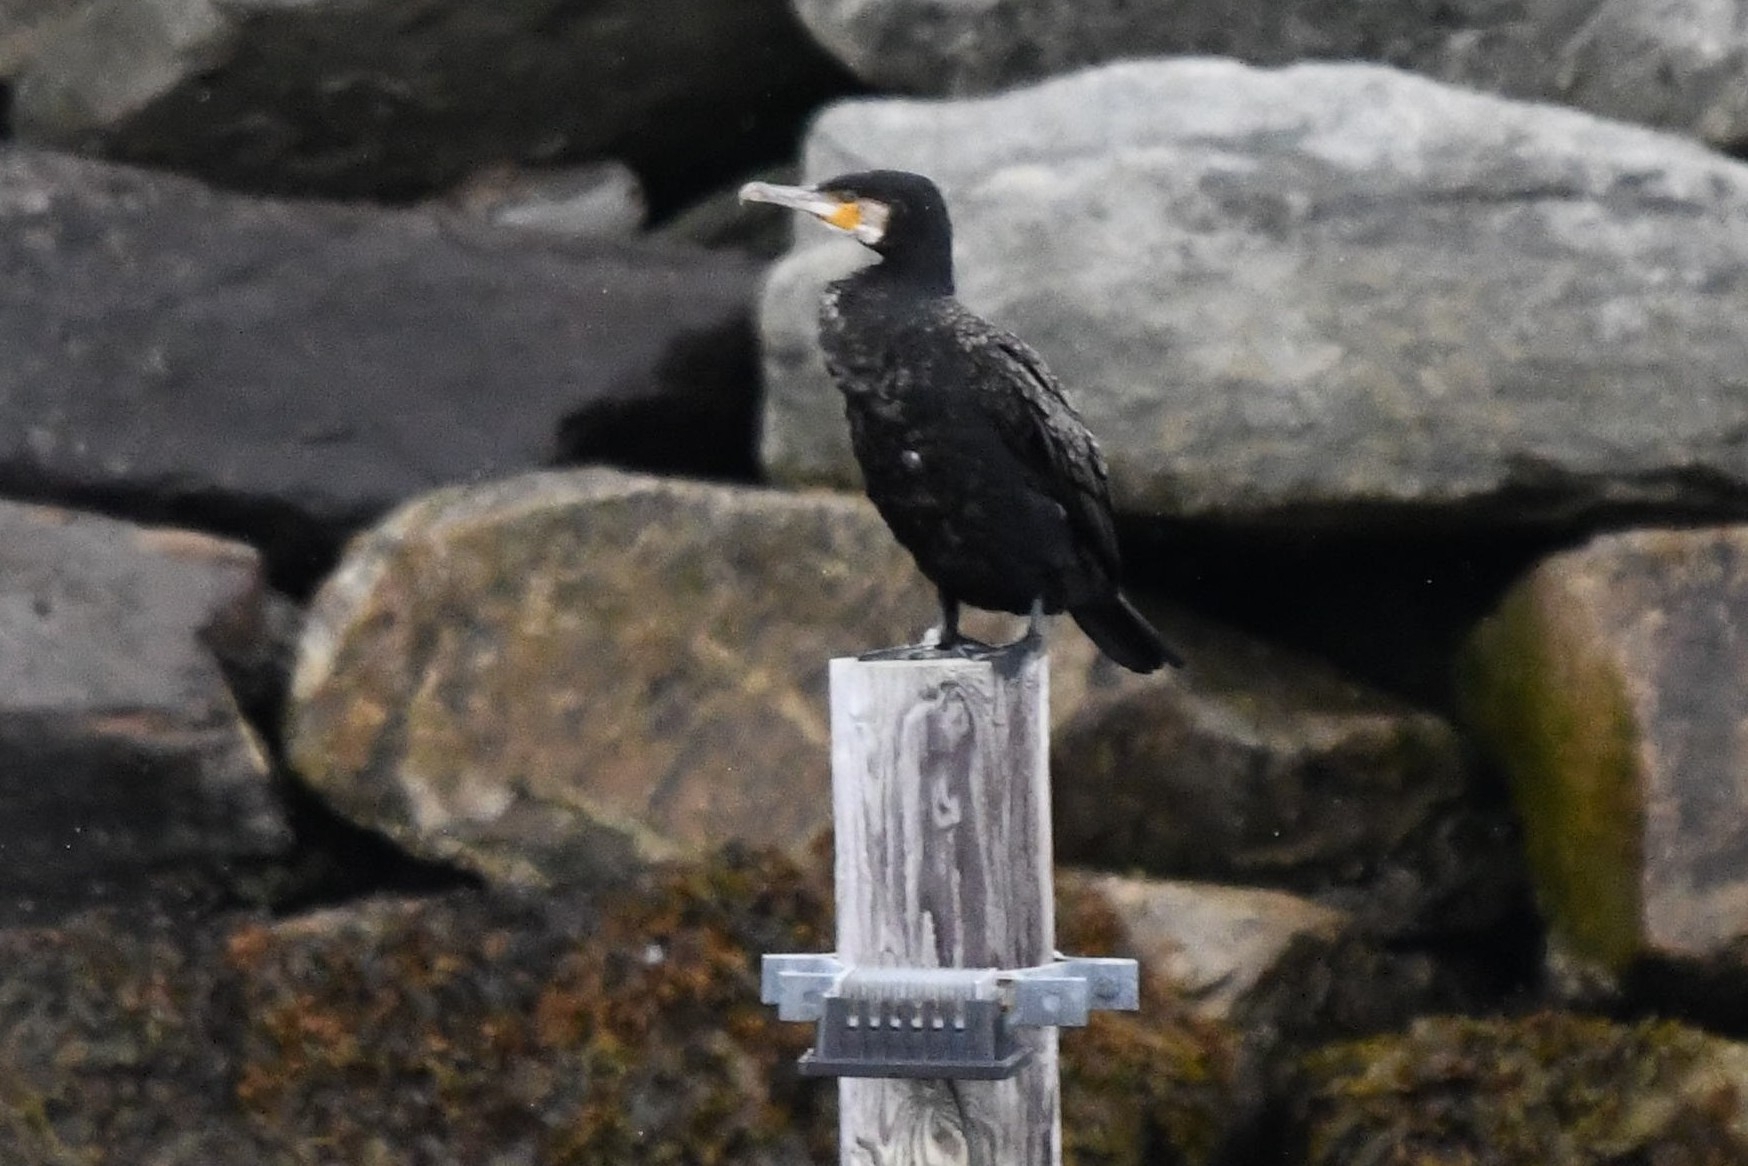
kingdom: Animalia
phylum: Chordata
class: Aves
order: Suliformes
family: Phalacrocoracidae
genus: Phalacrocorax
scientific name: Phalacrocorax carbo
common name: Great cormorant
